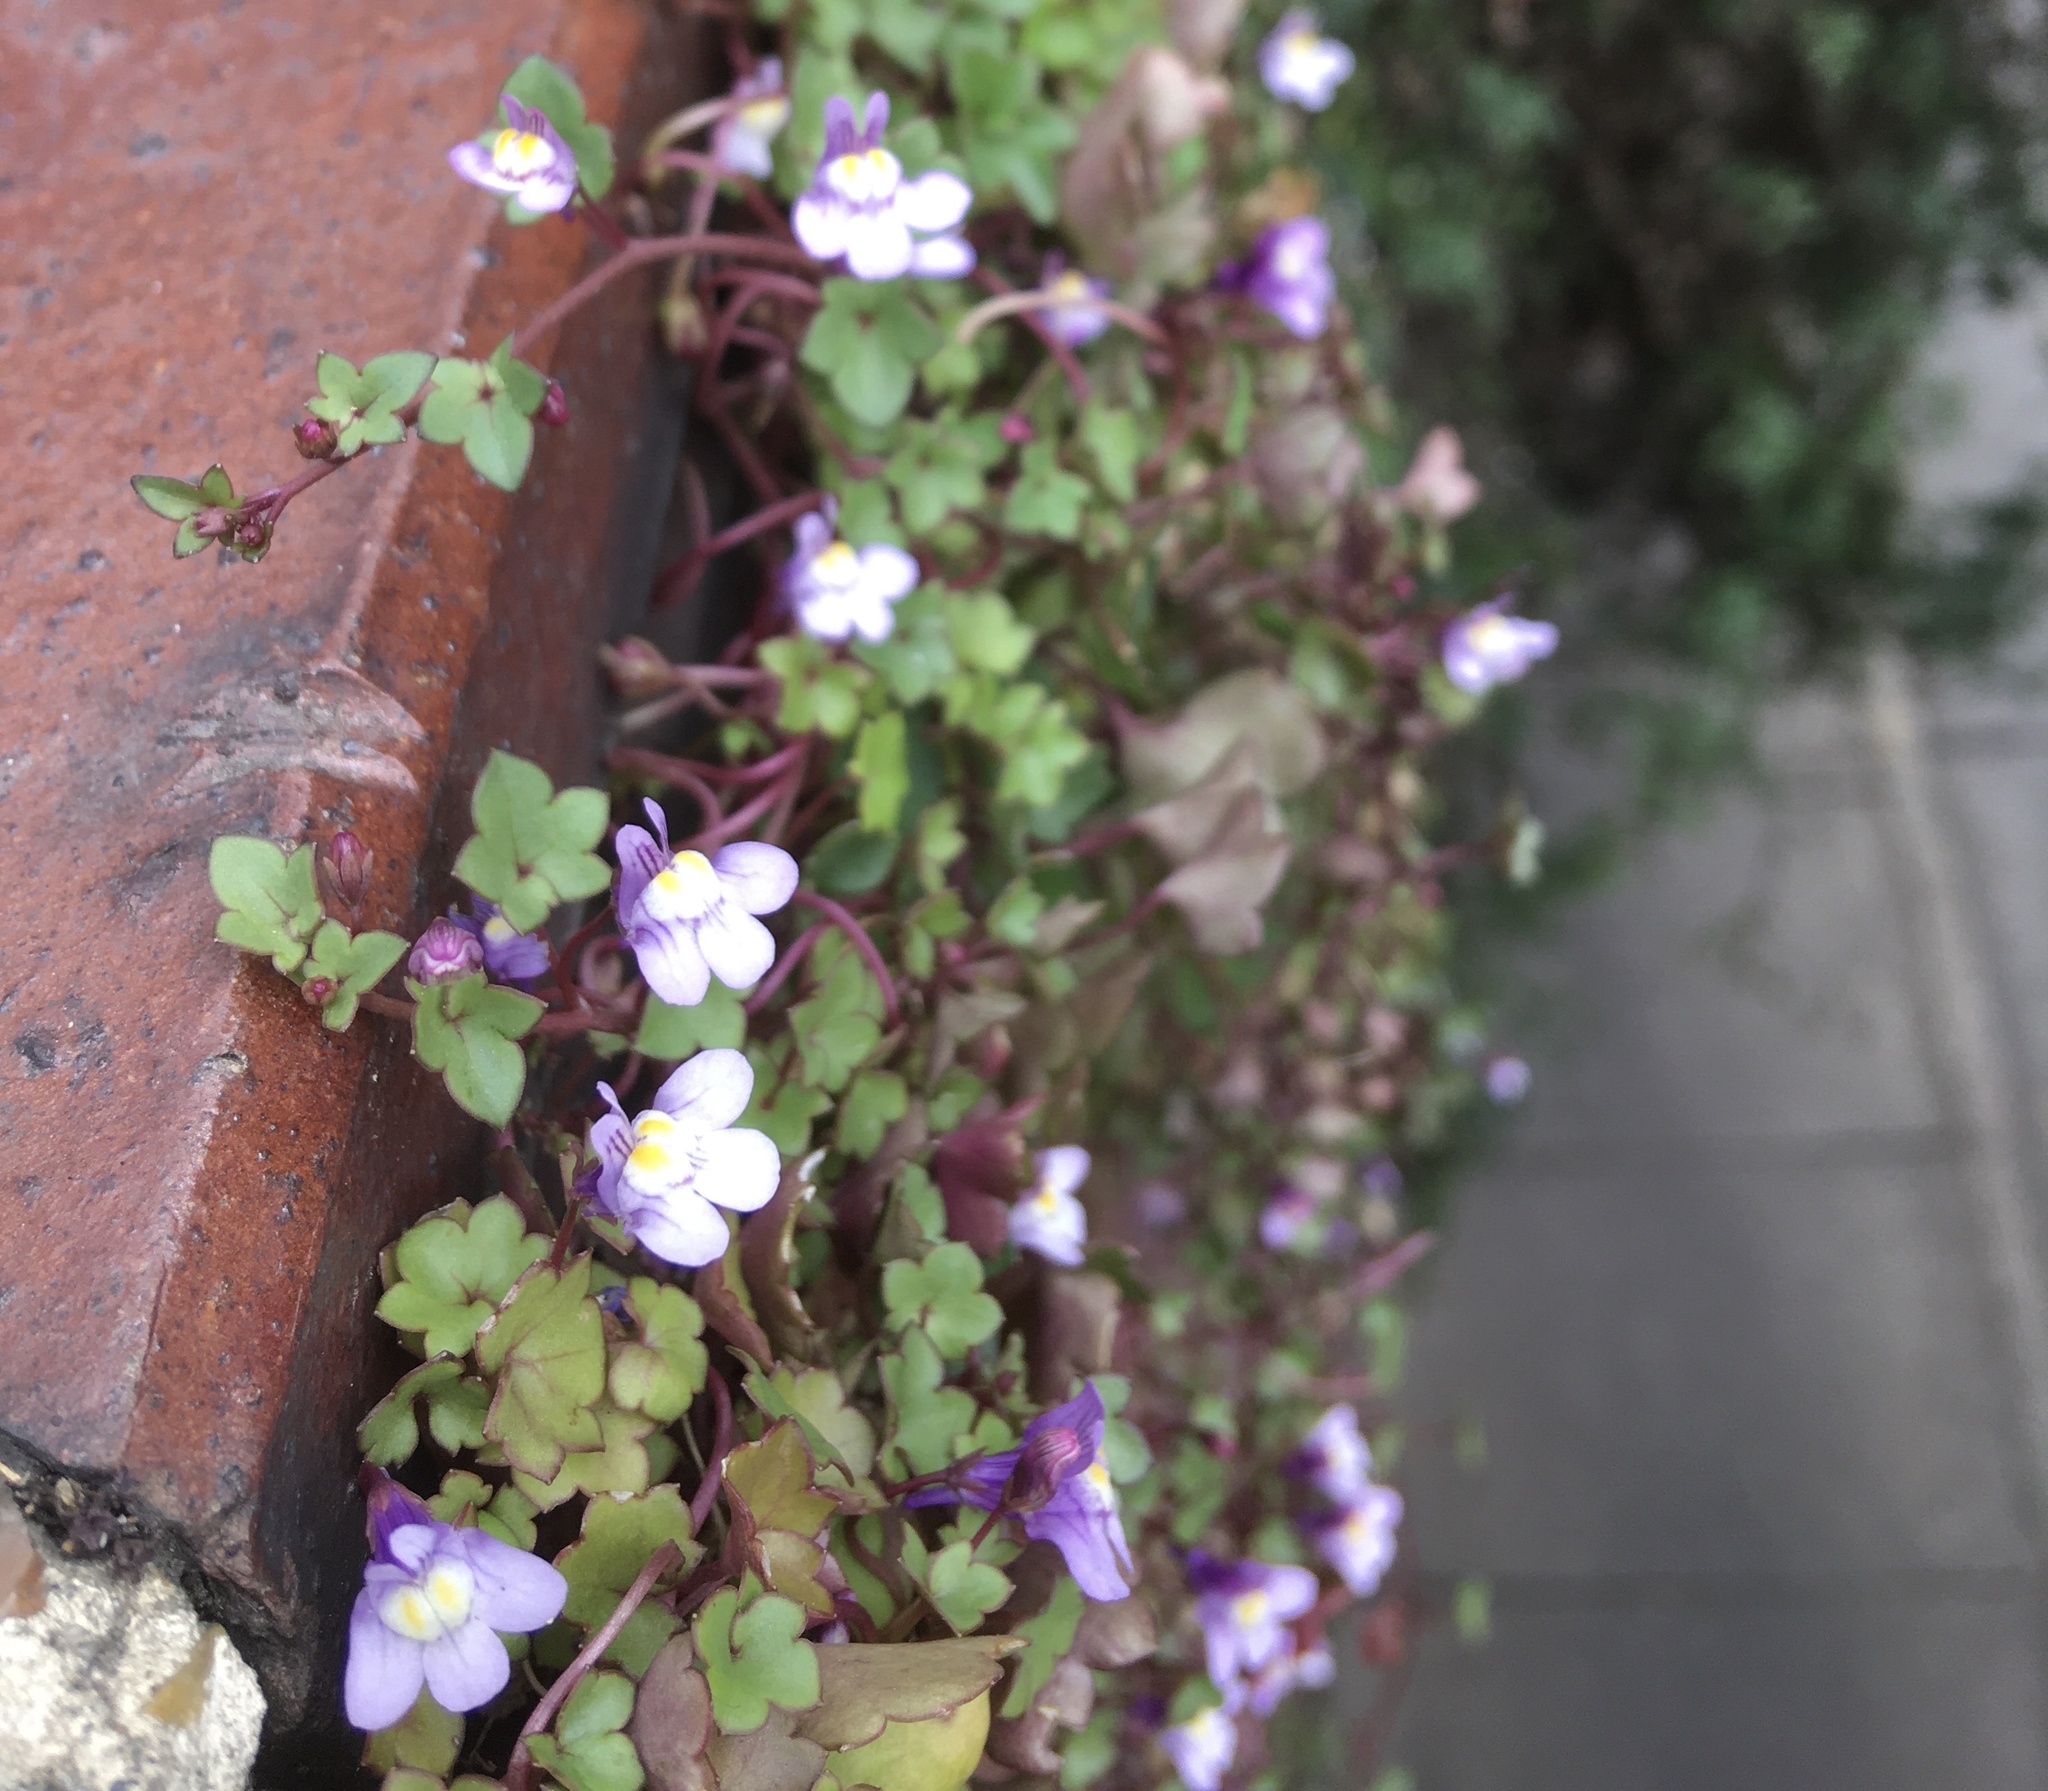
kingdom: Plantae
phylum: Tracheophyta
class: Magnoliopsida
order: Lamiales
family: Plantaginaceae
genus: Cymbalaria
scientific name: Cymbalaria muralis
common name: Ivy-leaved toadflax
